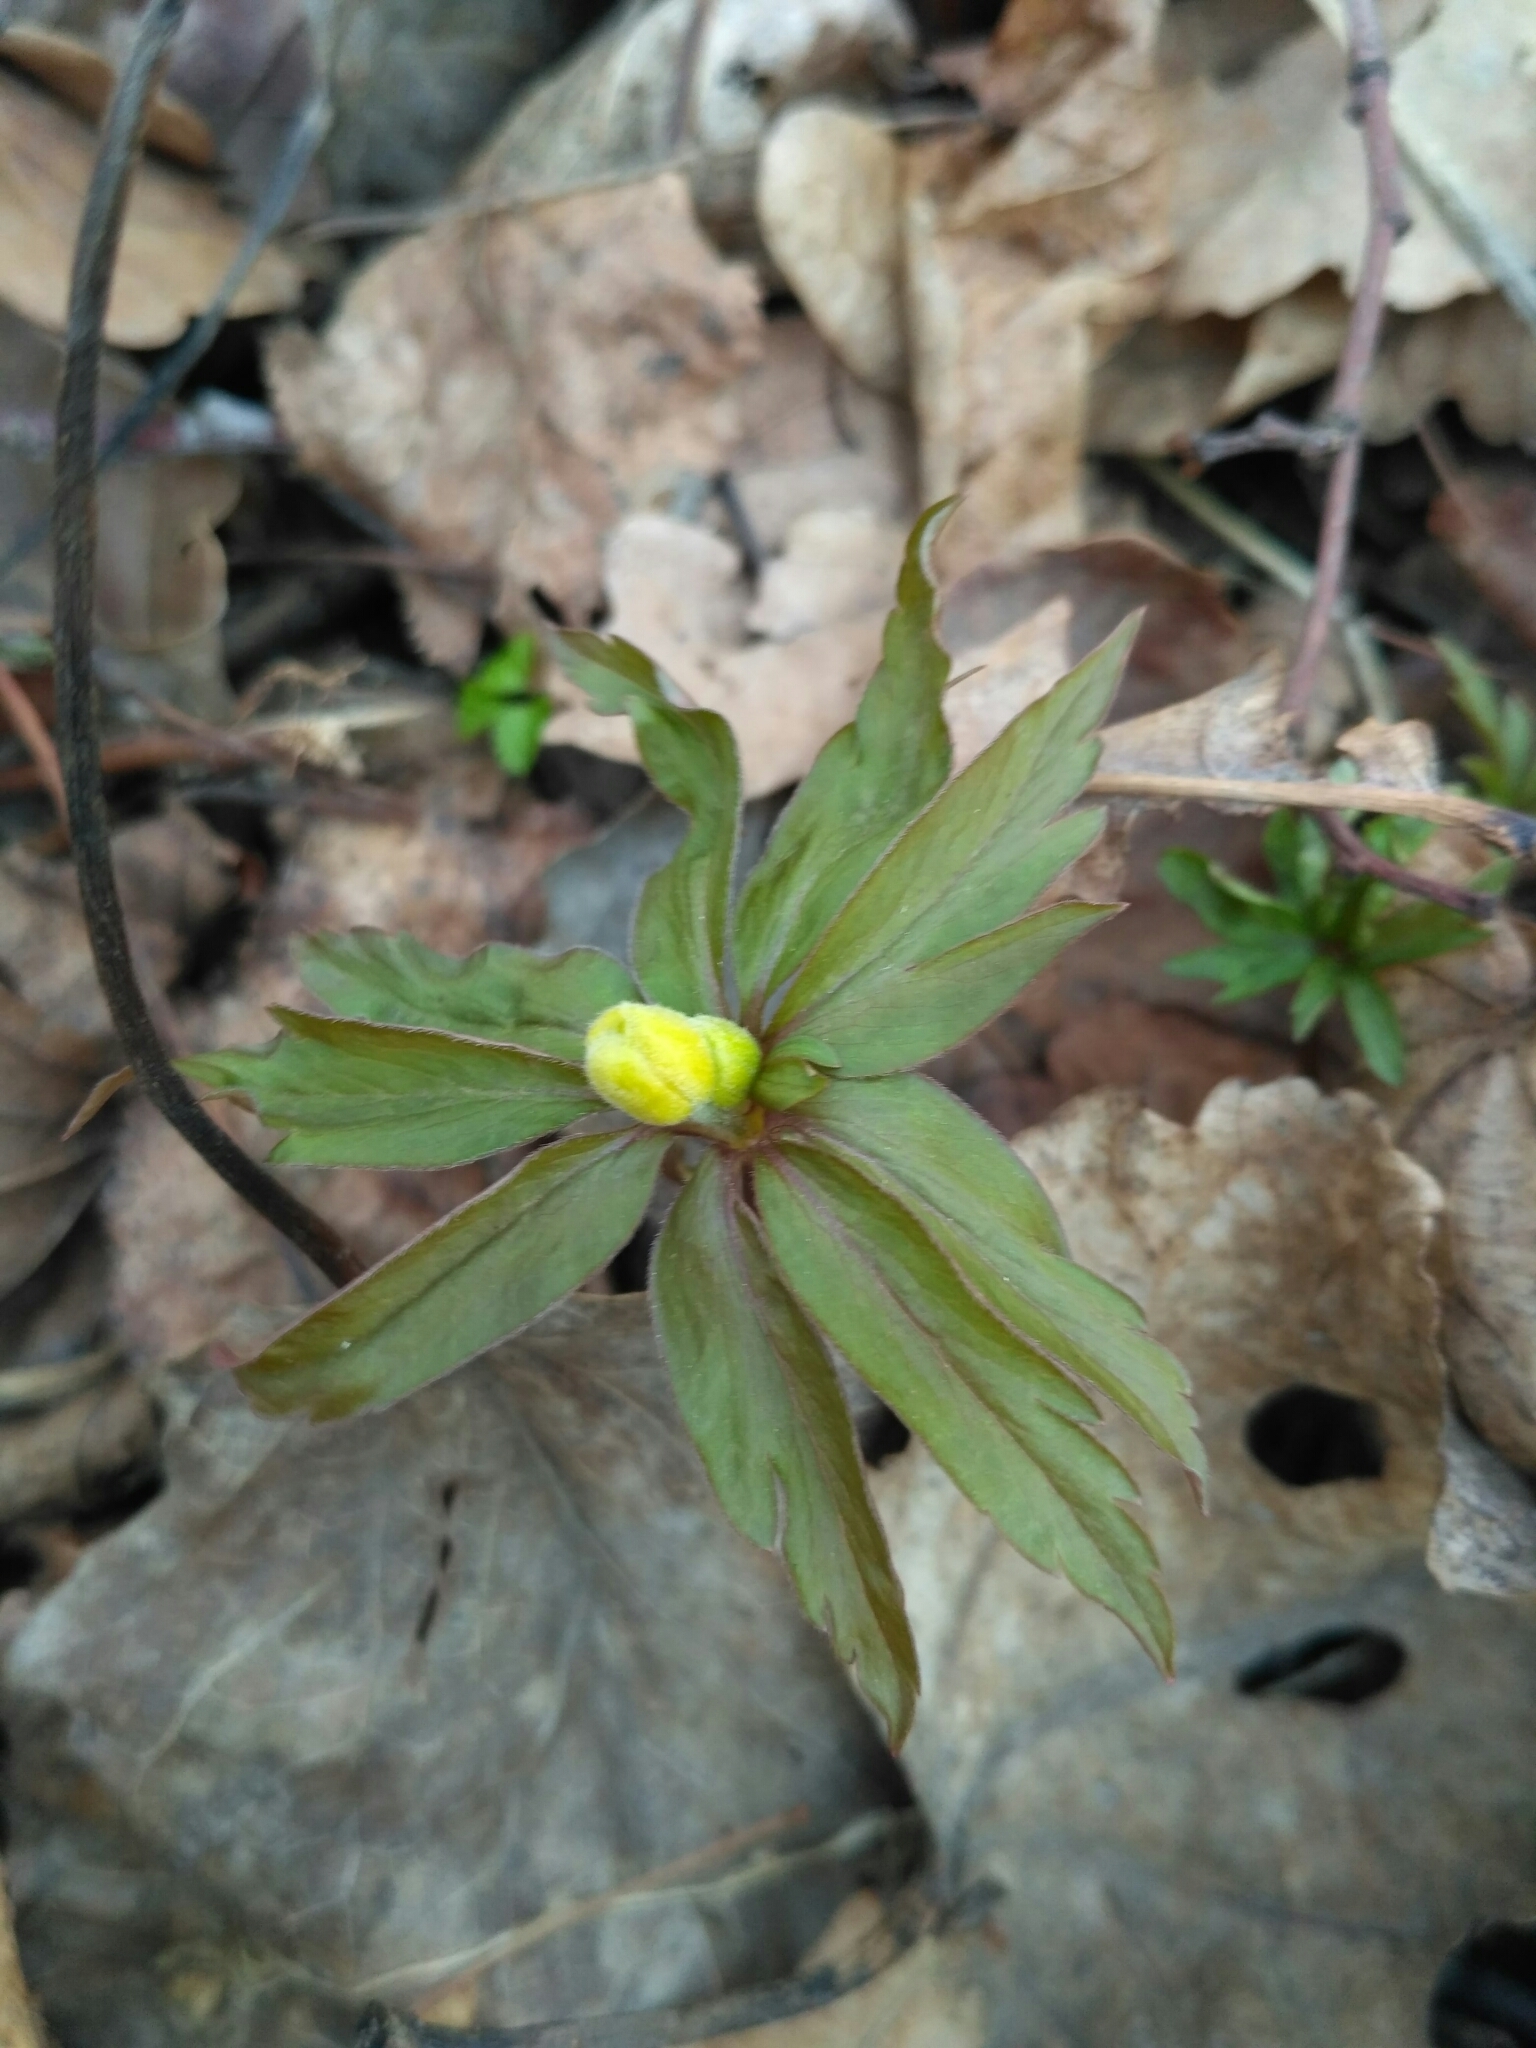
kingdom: Plantae
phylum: Tracheophyta
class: Magnoliopsida
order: Ranunculales
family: Ranunculaceae
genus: Anemone
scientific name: Anemone ranunculoides
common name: Yellow anemone
